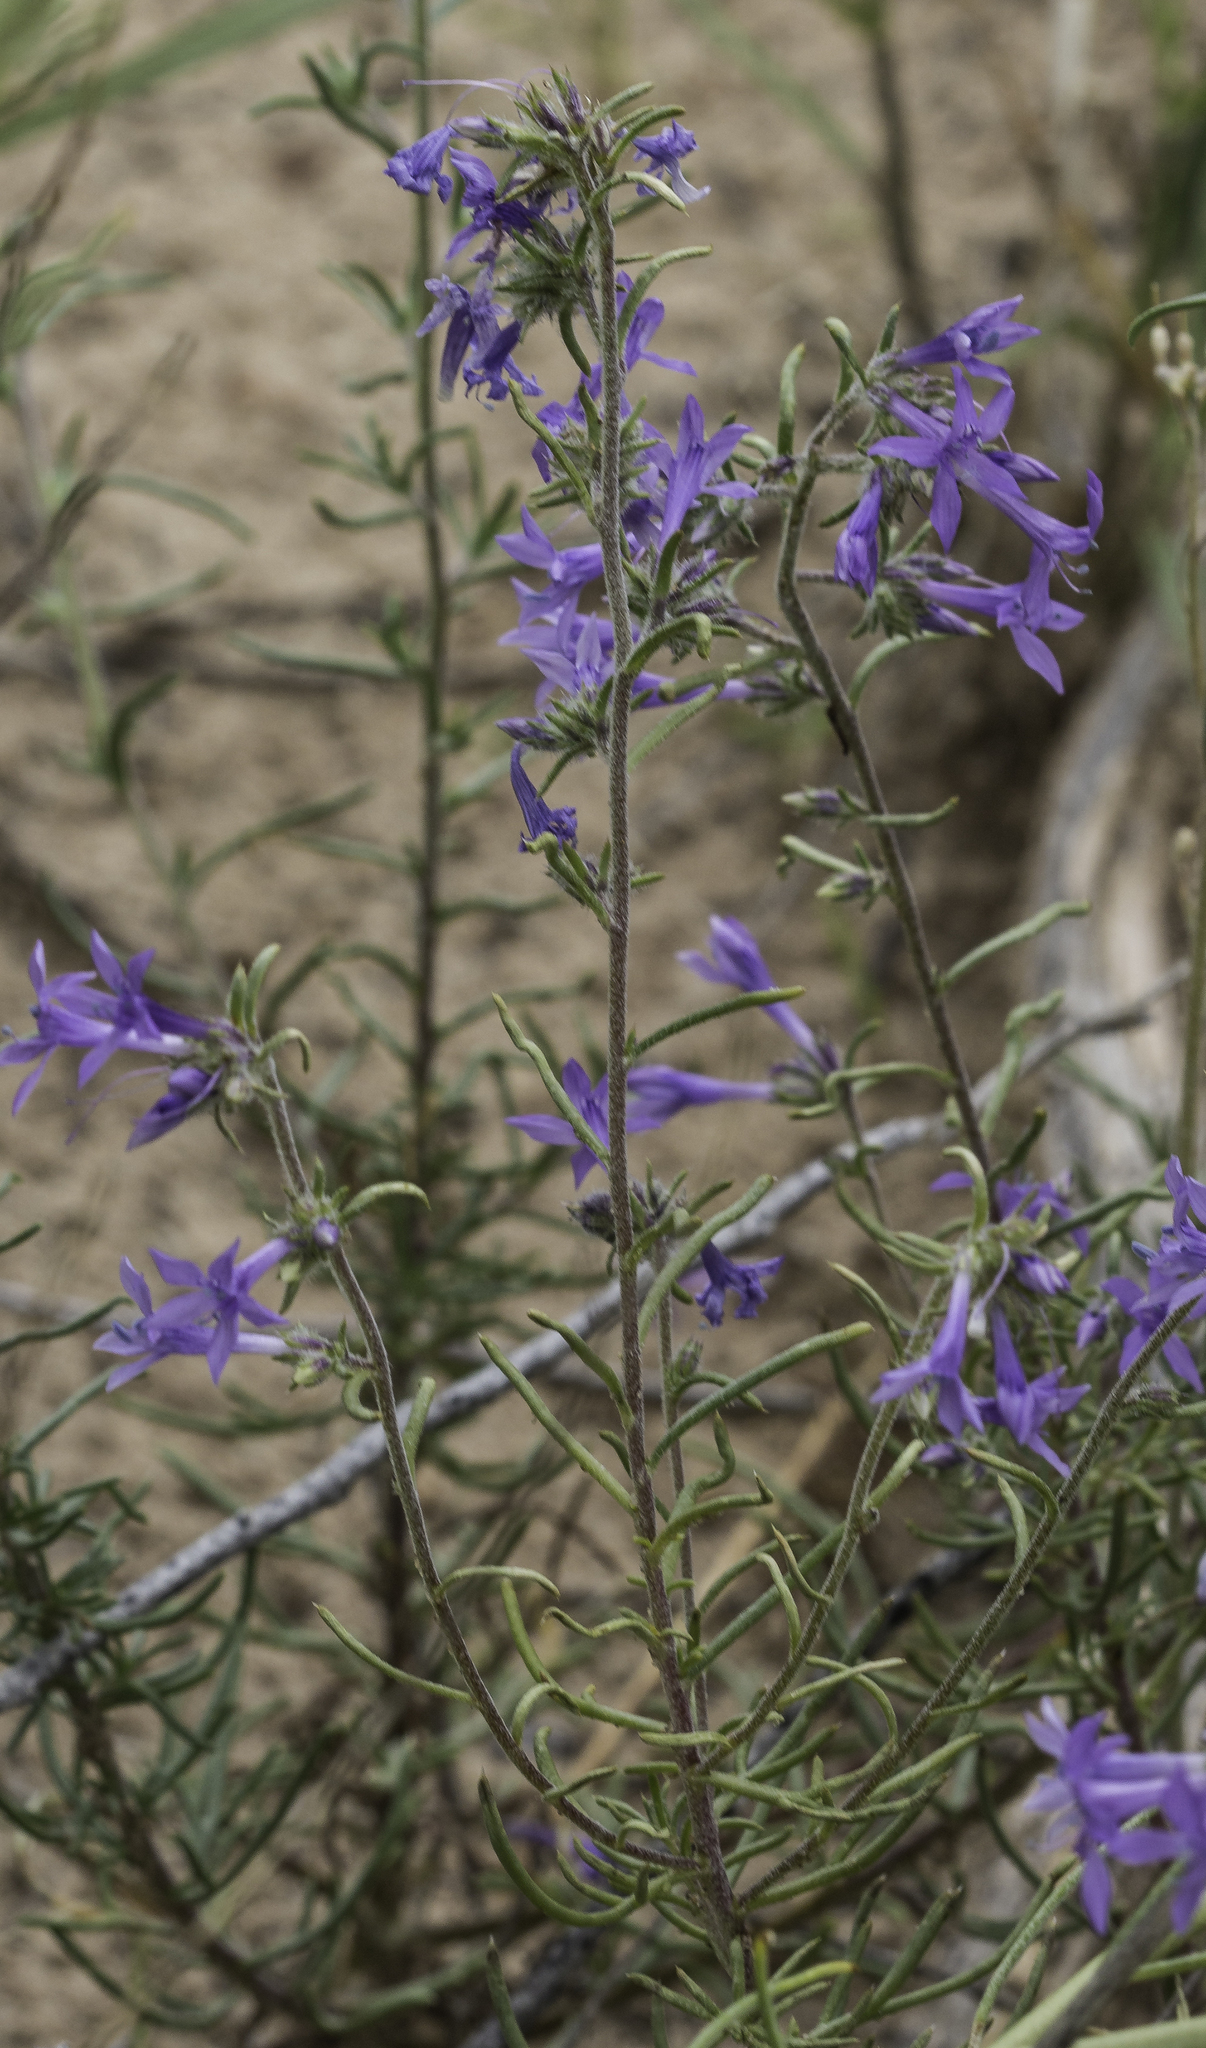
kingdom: Plantae
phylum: Tracheophyta
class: Magnoliopsida
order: Ericales
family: Polemoniaceae
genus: Ipomopsis
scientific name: Ipomopsis multiflora
